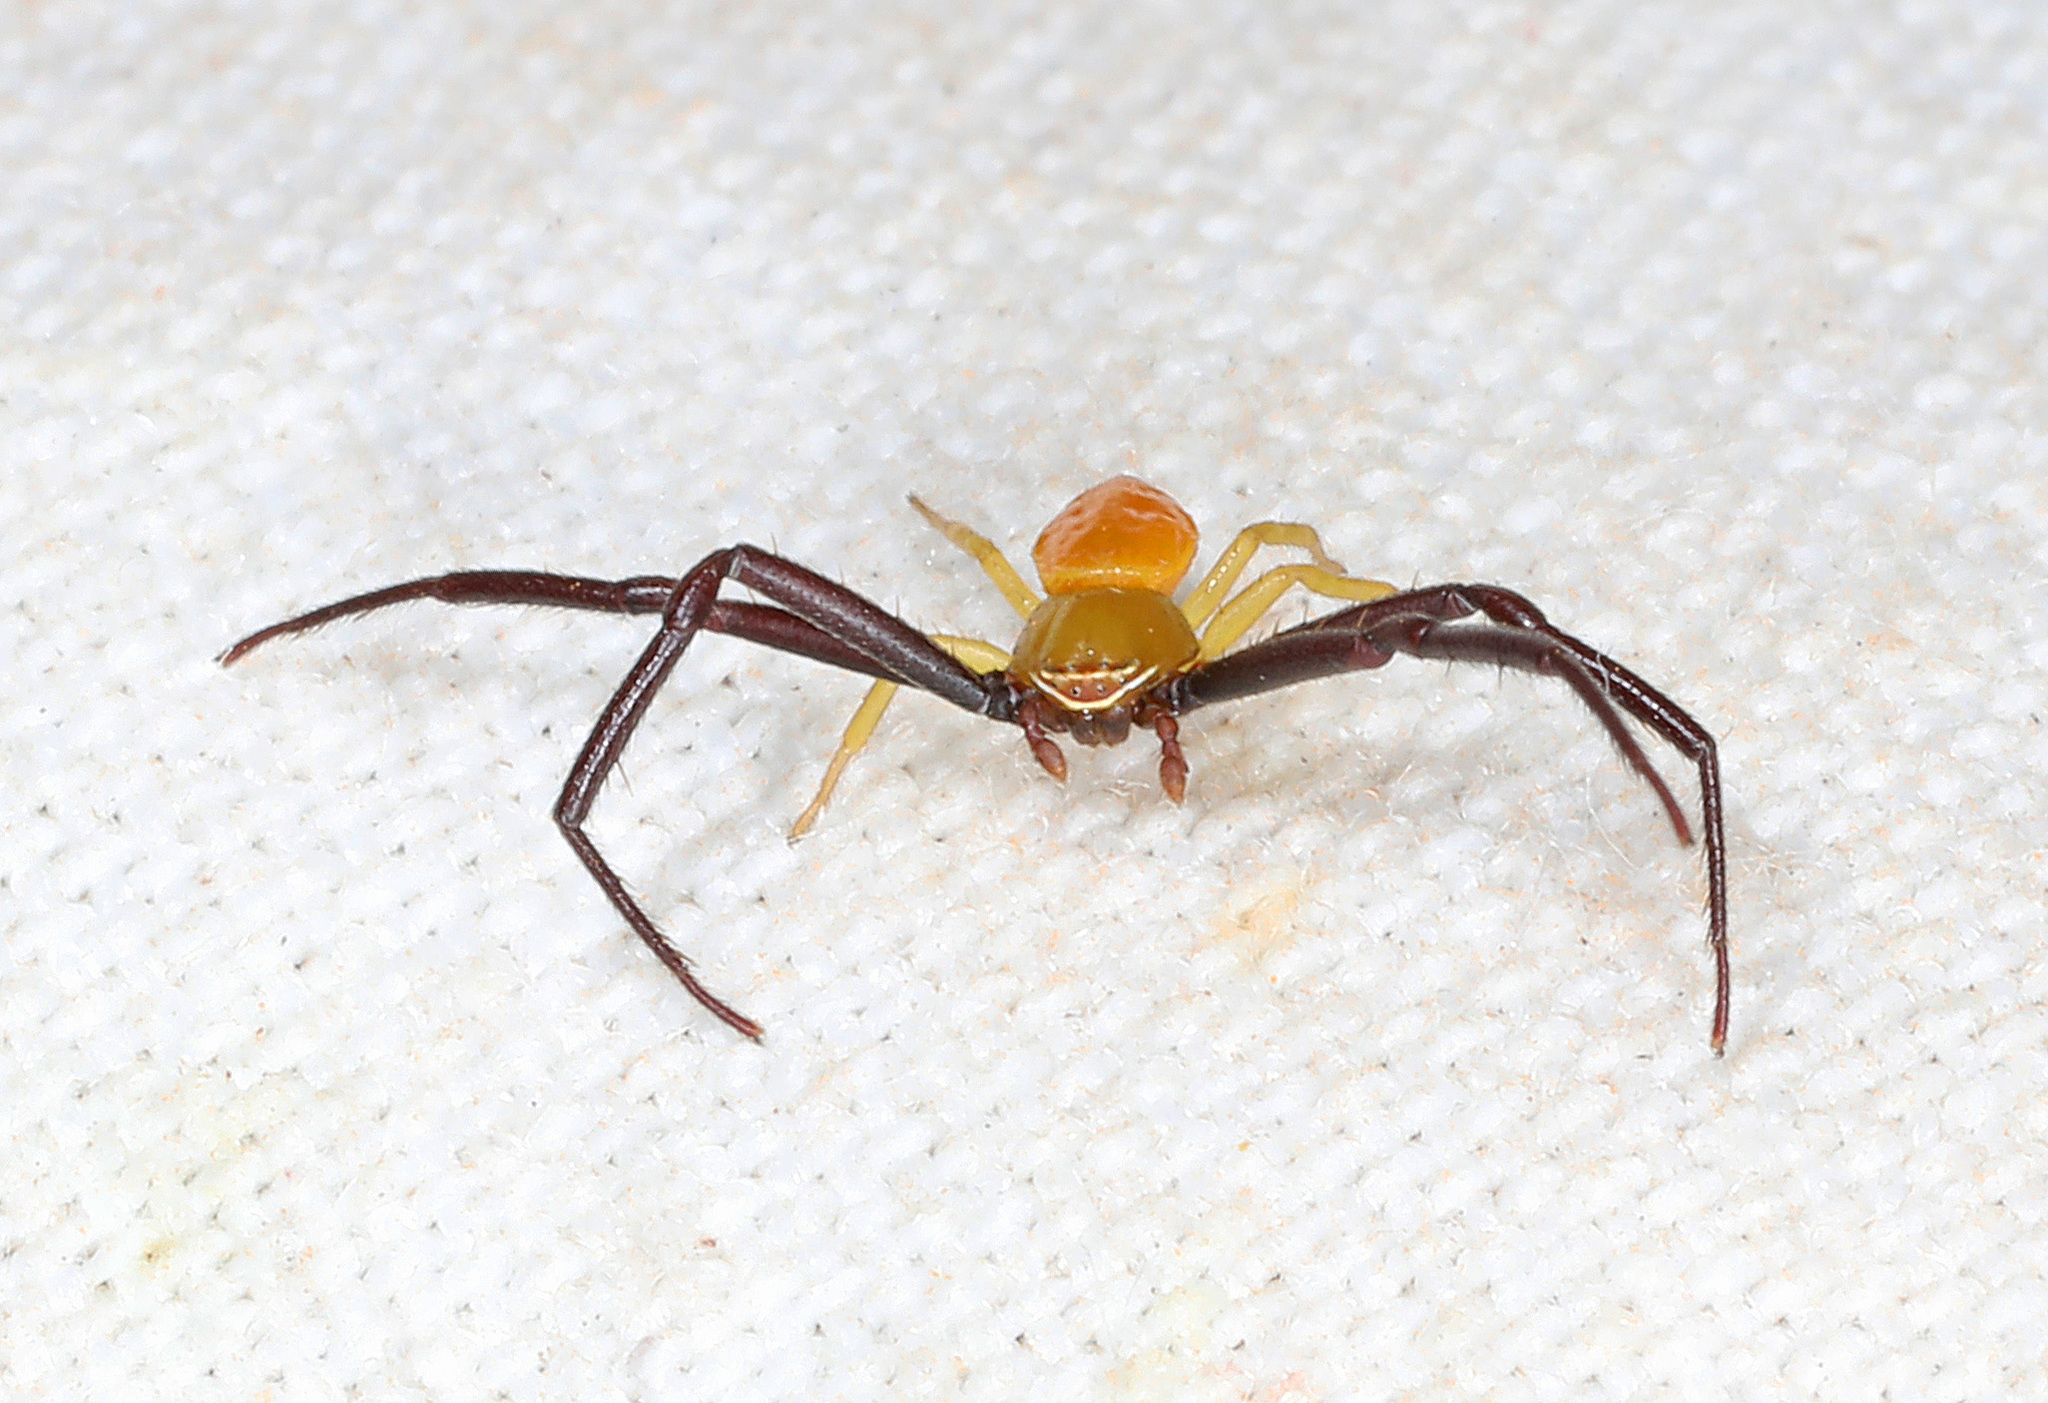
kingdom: Animalia
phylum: Arthropoda
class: Arachnida
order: Araneae
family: Thomisidae
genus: Misumenoides
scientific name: Misumenoides formosipes
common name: White-banded crab spider
